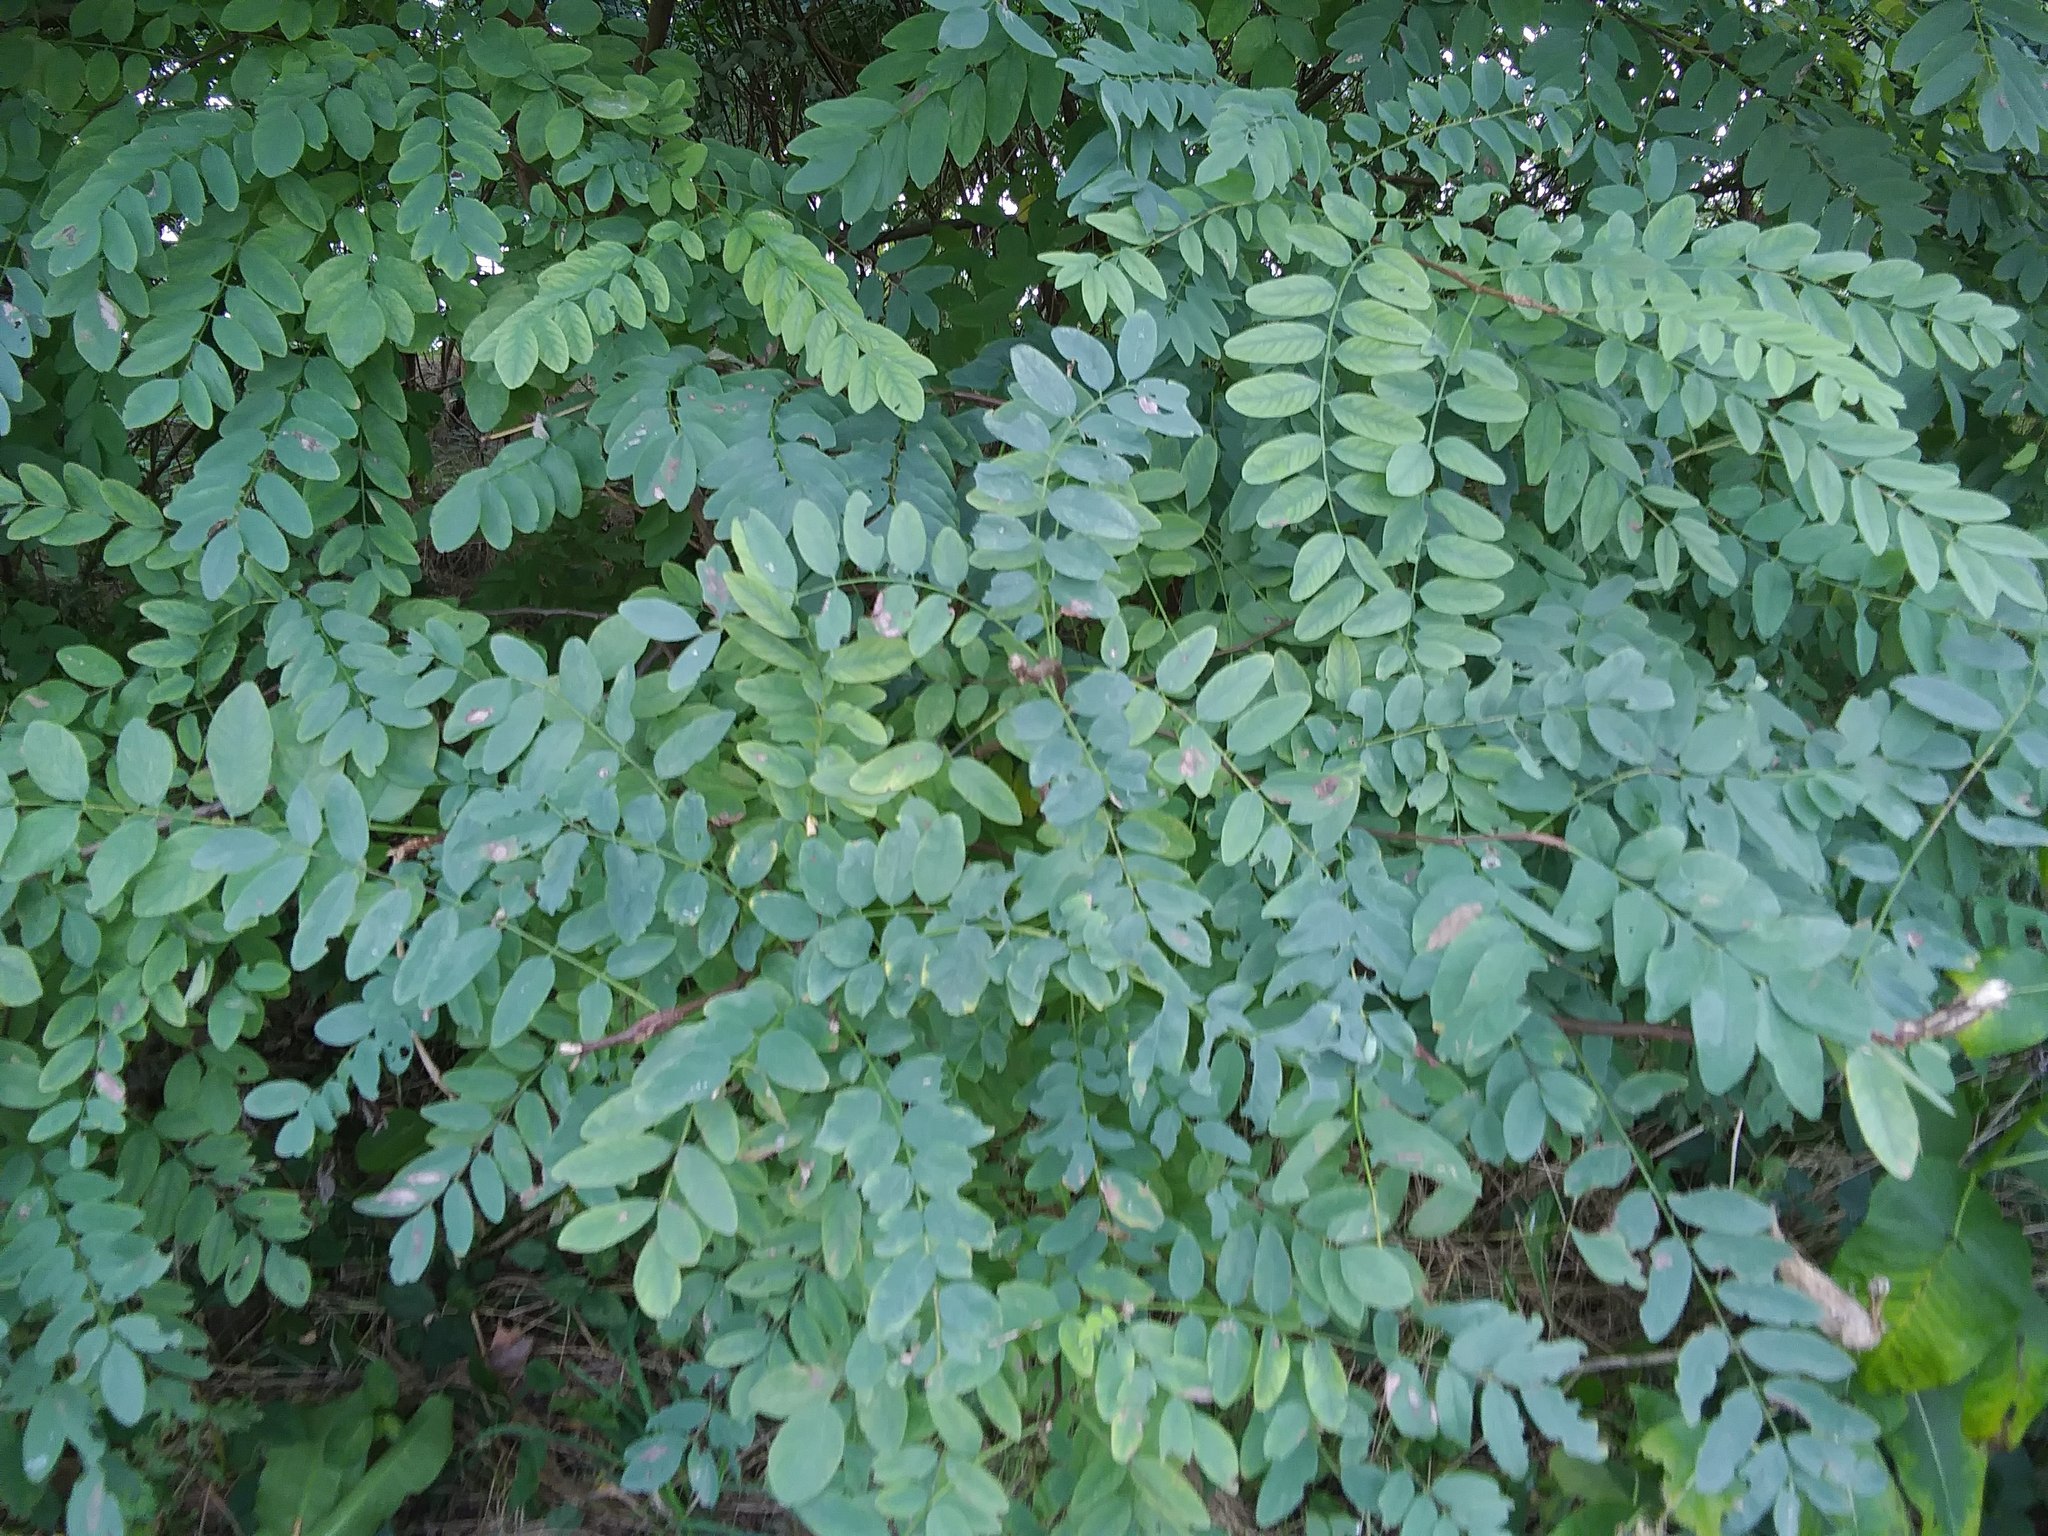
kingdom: Plantae
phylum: Tracheophyta
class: Magnoliopsida
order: Fabales
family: Fabaceae
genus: Robinia
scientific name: Robinia pseudoacacia
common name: Black locust
